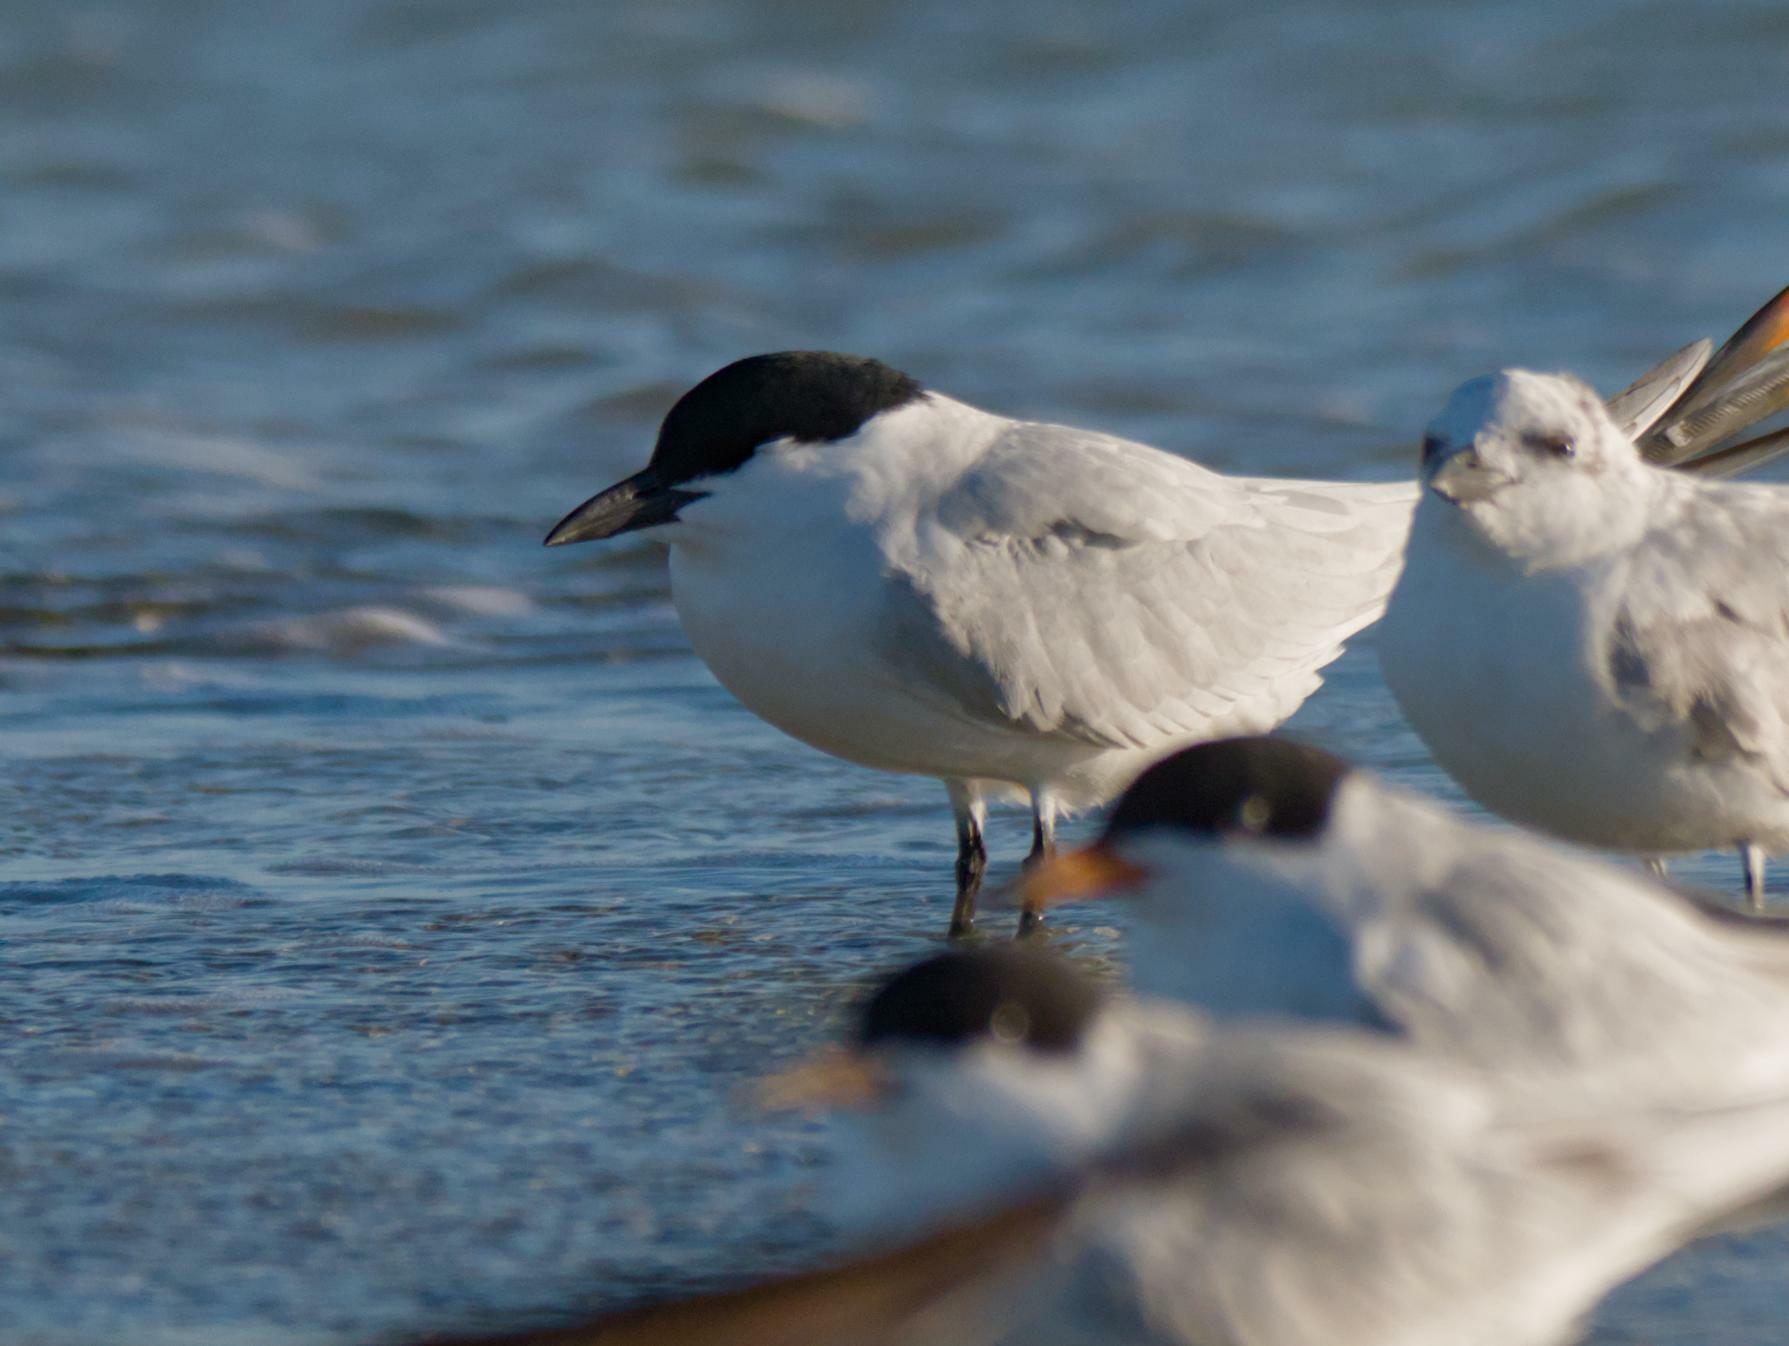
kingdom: Animalia
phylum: Chordata
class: Aves
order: Charadriiformes
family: Laridae
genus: Gelochelidon
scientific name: Gelochelidon nilotica
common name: Gull-billed tern
